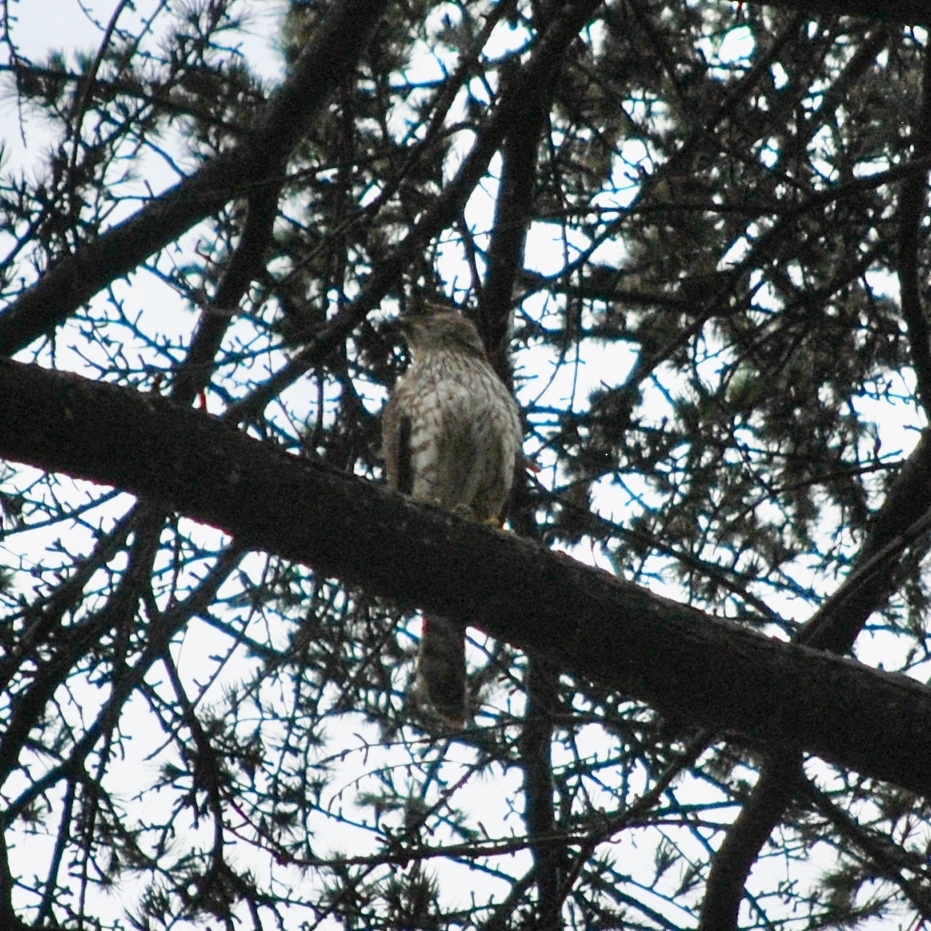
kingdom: Animalia
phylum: Chordata
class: Aves
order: Accipitriformes
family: Accipitridae
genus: Accipiter
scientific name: Accipiter cooperii
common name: Cooper's hawk
